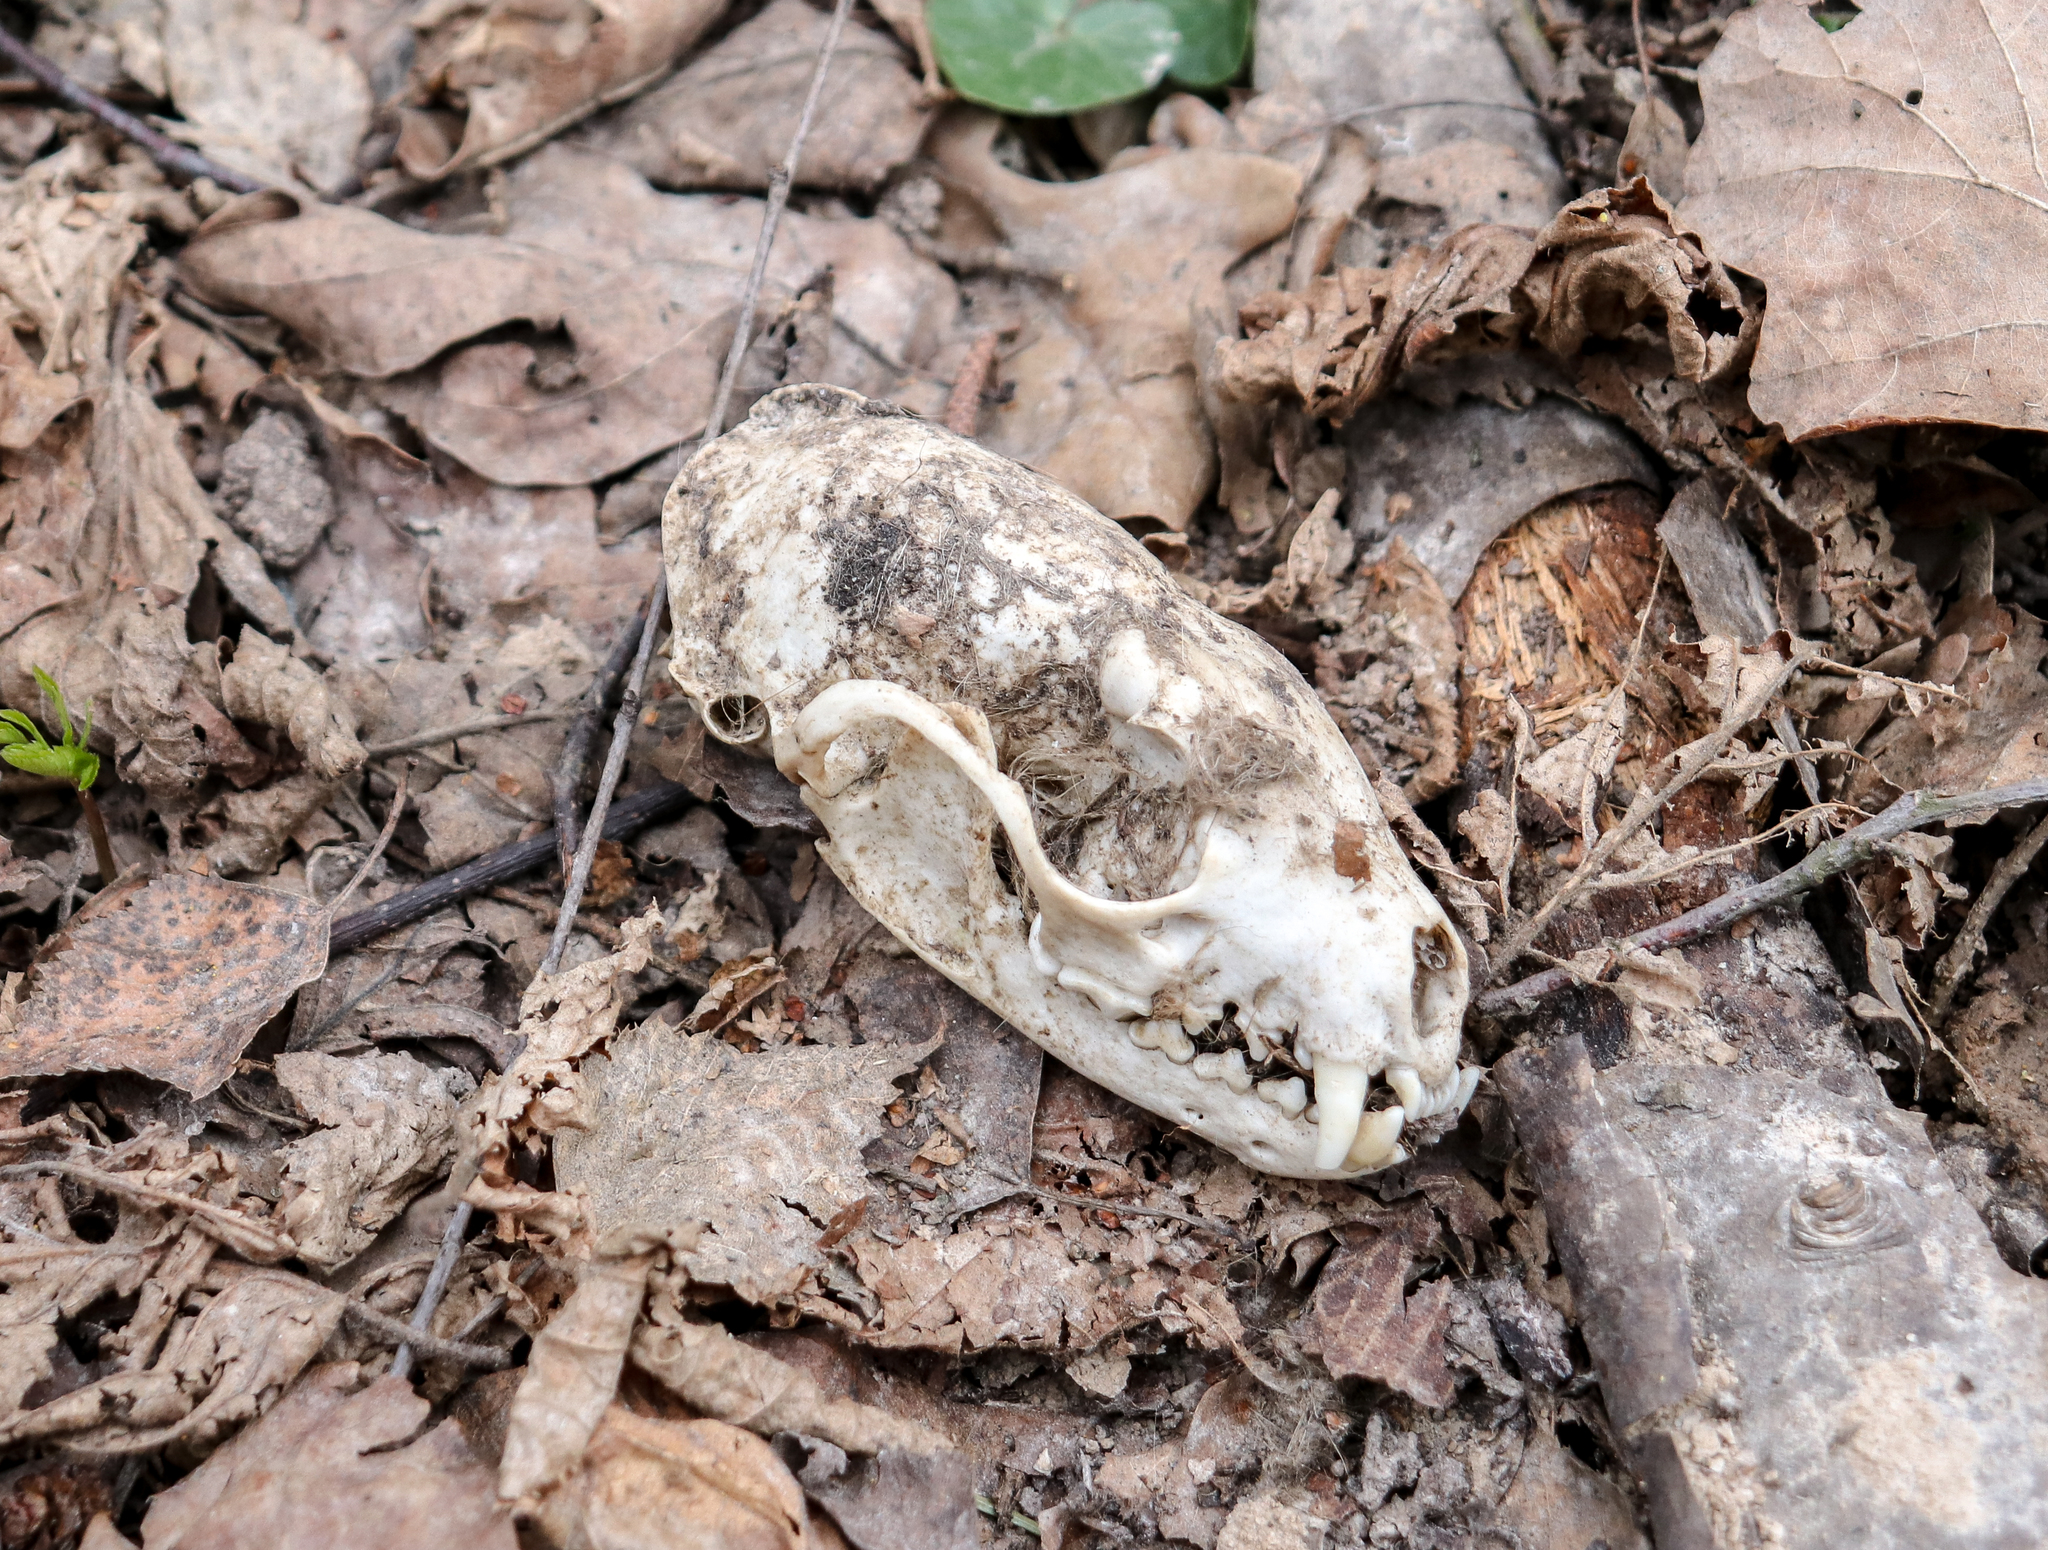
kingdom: Animalia
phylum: Chordata
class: Mammalia
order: Carnivora
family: Mustelidae
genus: Martes
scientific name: Martes martes
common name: European pine marten
